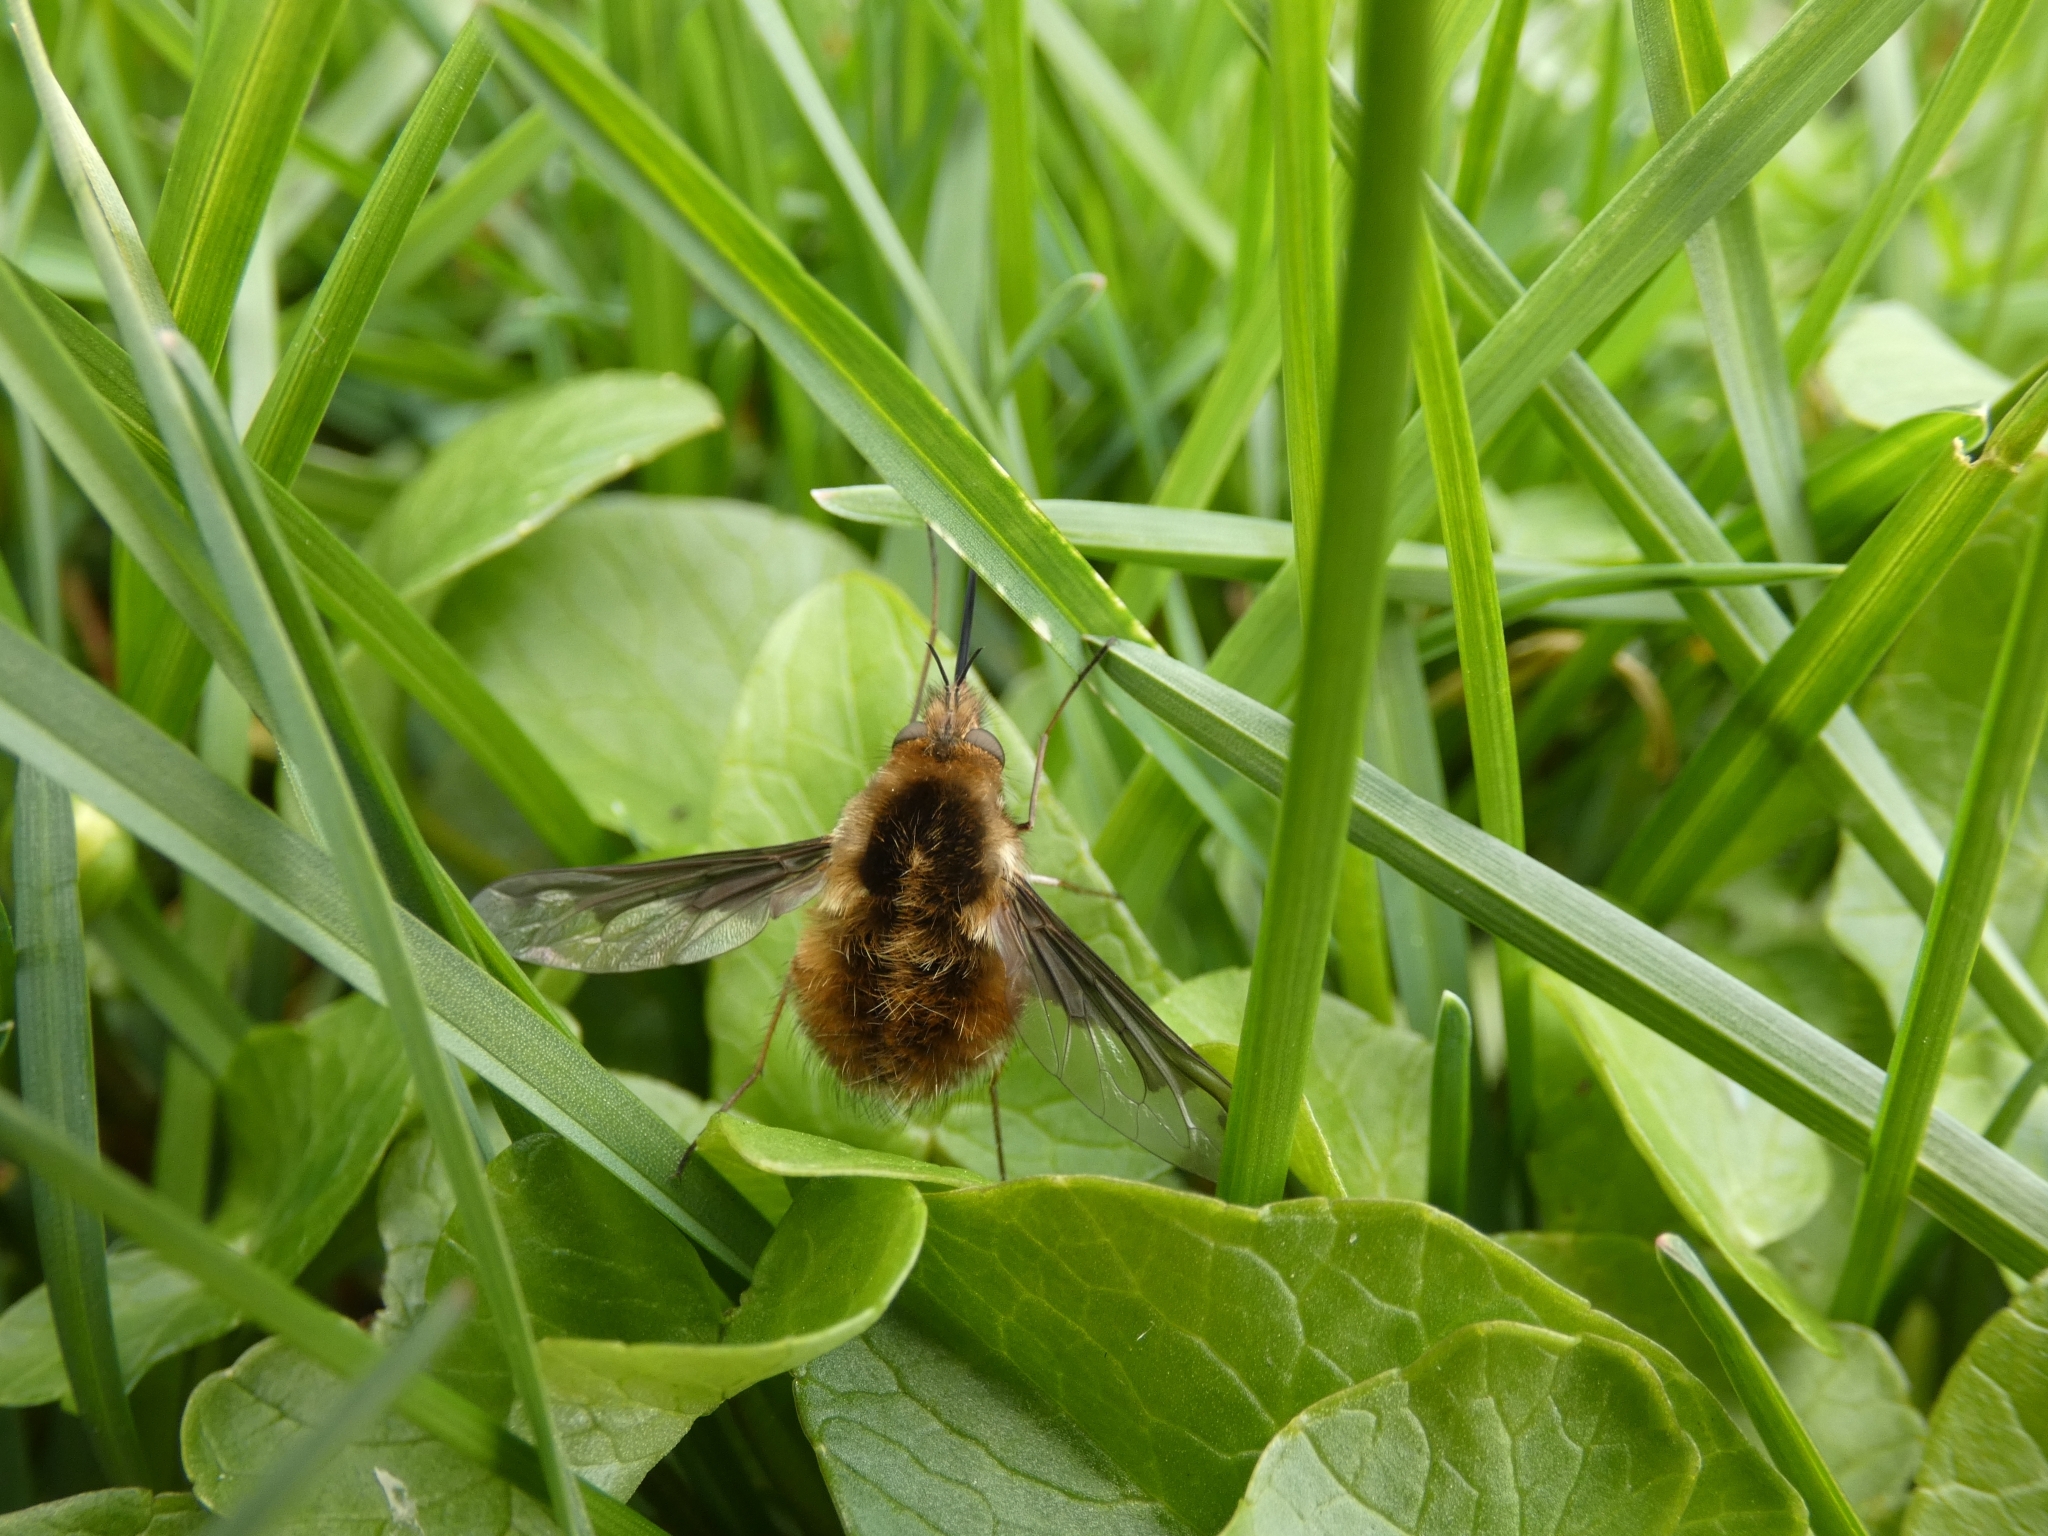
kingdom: Animalia
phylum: Arthropoda
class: Insecta
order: Diptera
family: Bombyliidae
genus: Bombylius
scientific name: Bombylius major
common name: Bee fly
